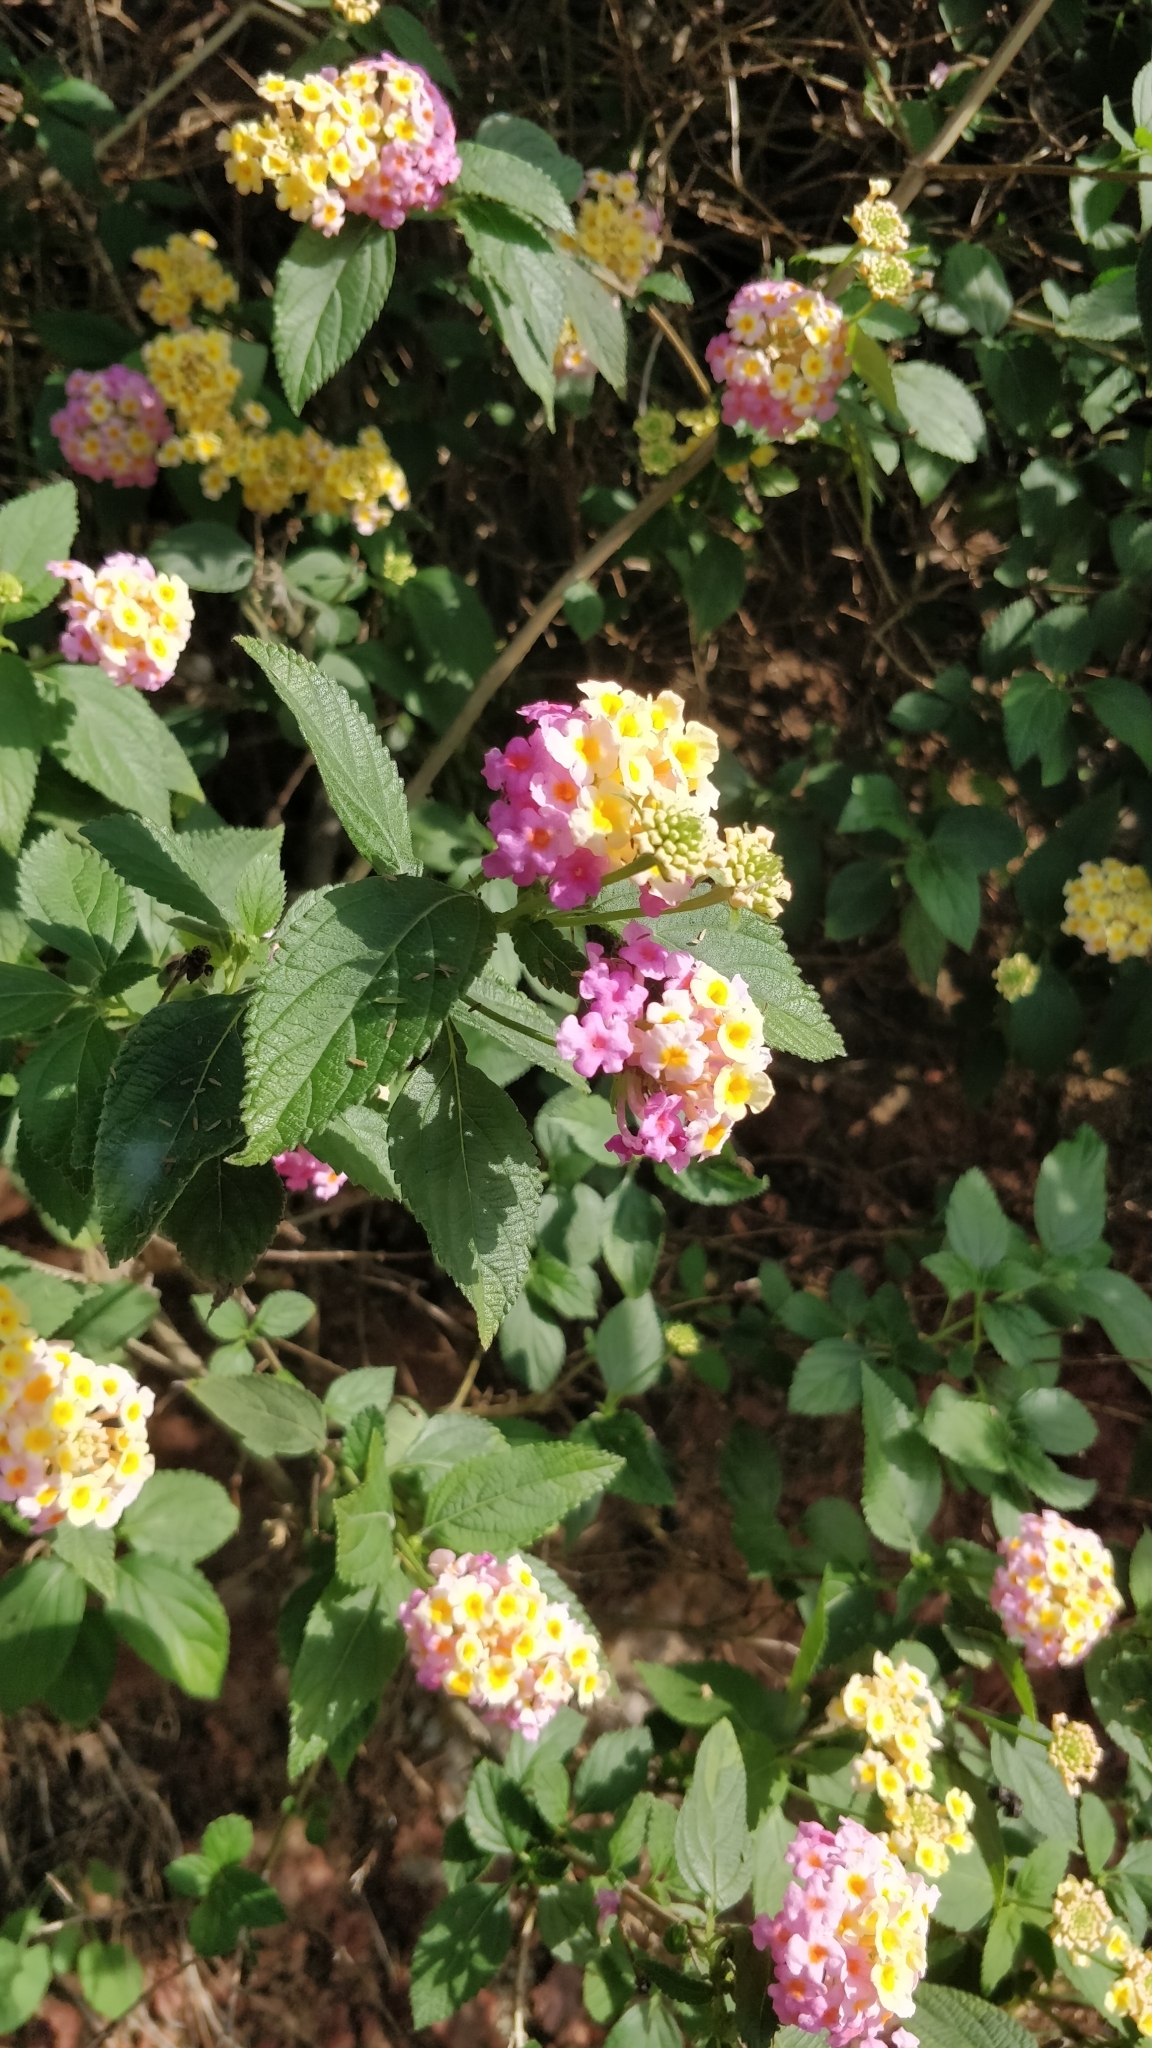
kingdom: Plantae
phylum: Tracheophyta
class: Magnoliopsida
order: Lamiales
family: Verbenaceae
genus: Lantana
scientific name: Lantana camara
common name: Lantana
